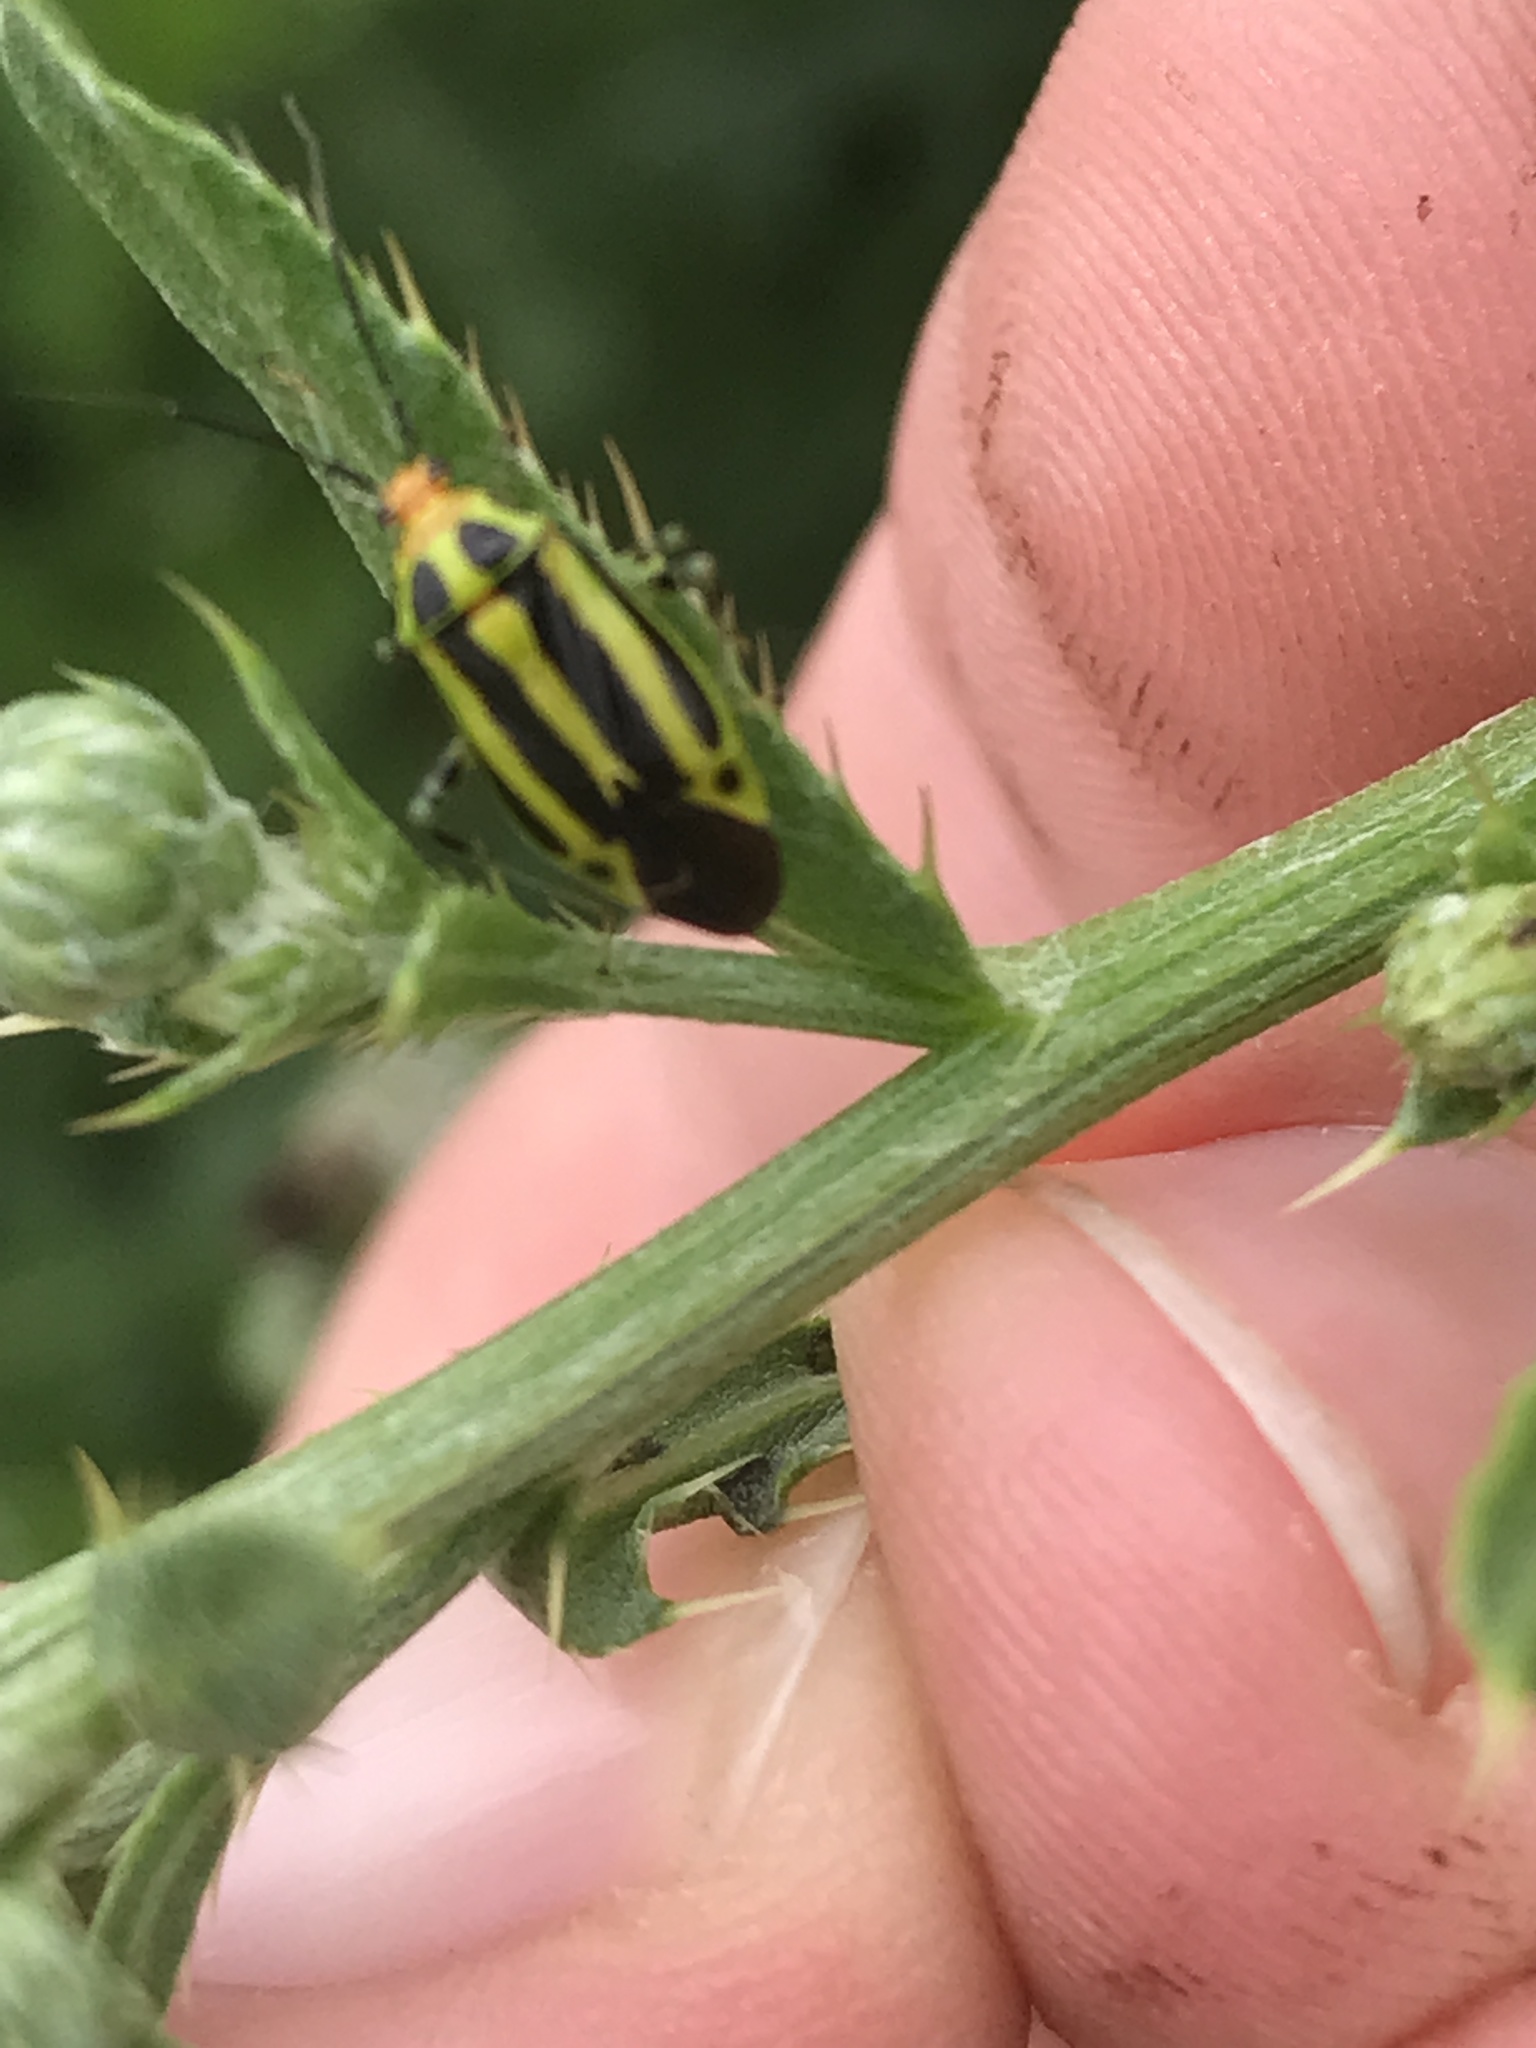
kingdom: Animalia
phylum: Arthropoda
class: Insecta
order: Hemiptera
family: Miridae
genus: Poecilocapsus
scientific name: Poecilocapsus lineatus
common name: Four-lined plant bug
